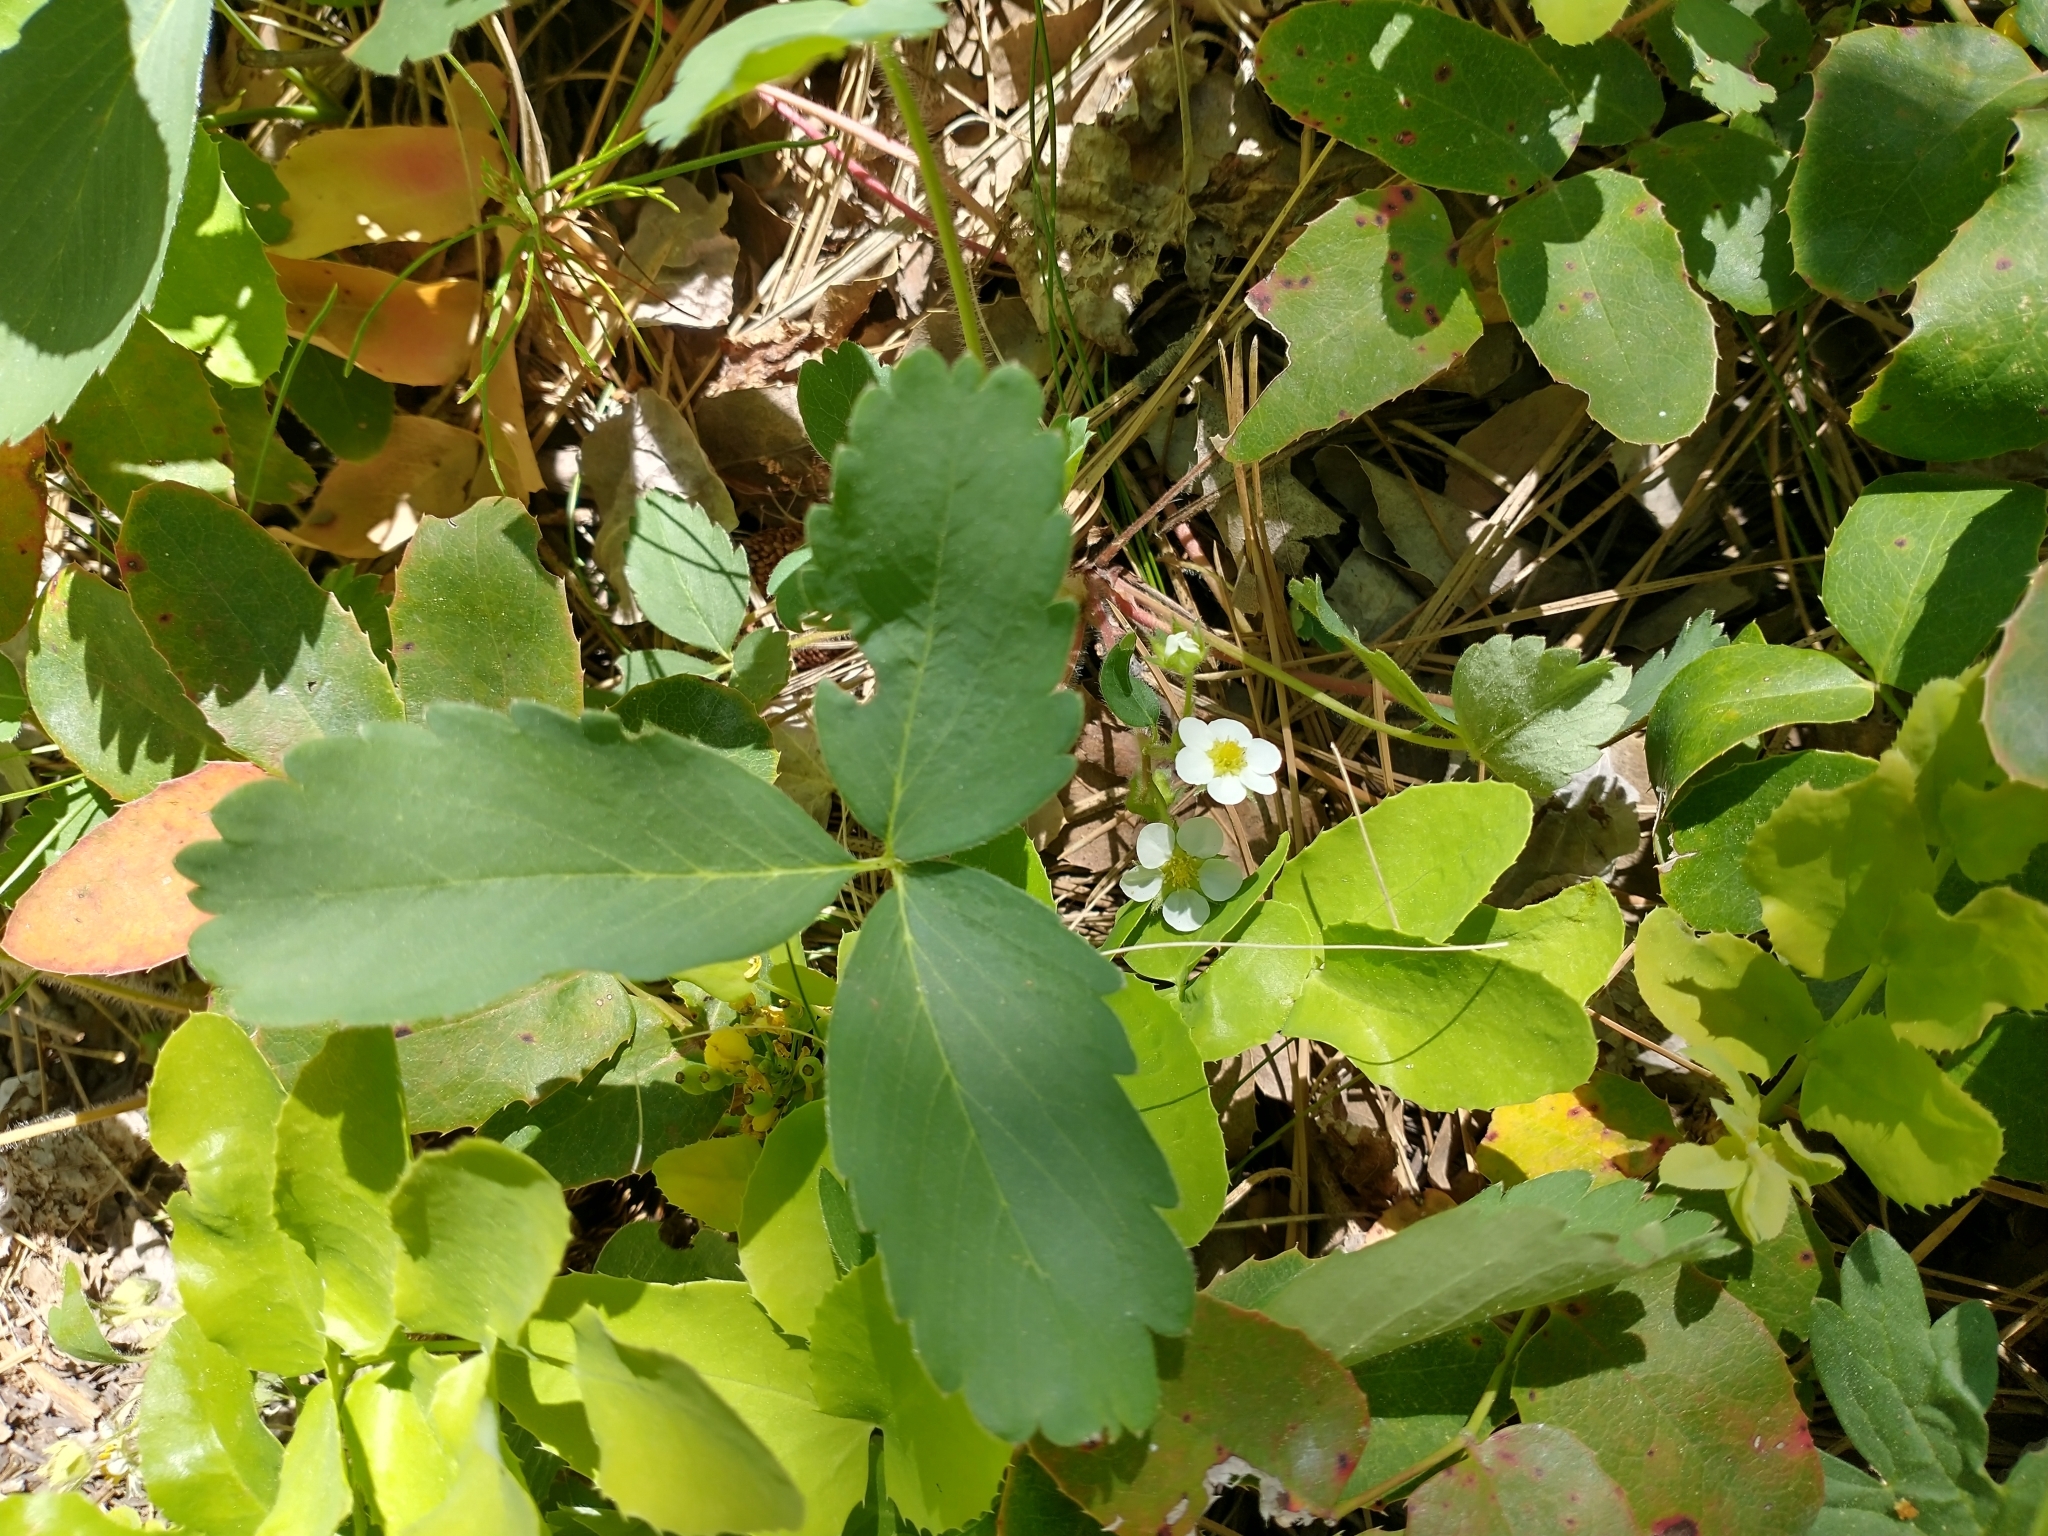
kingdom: Plantae
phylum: Tracheophyta
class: Magnoliopsida
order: Rosales
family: Rosaceae
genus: Fragaria
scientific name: Fragaria virginiana
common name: Thickleaved wild strawberry
